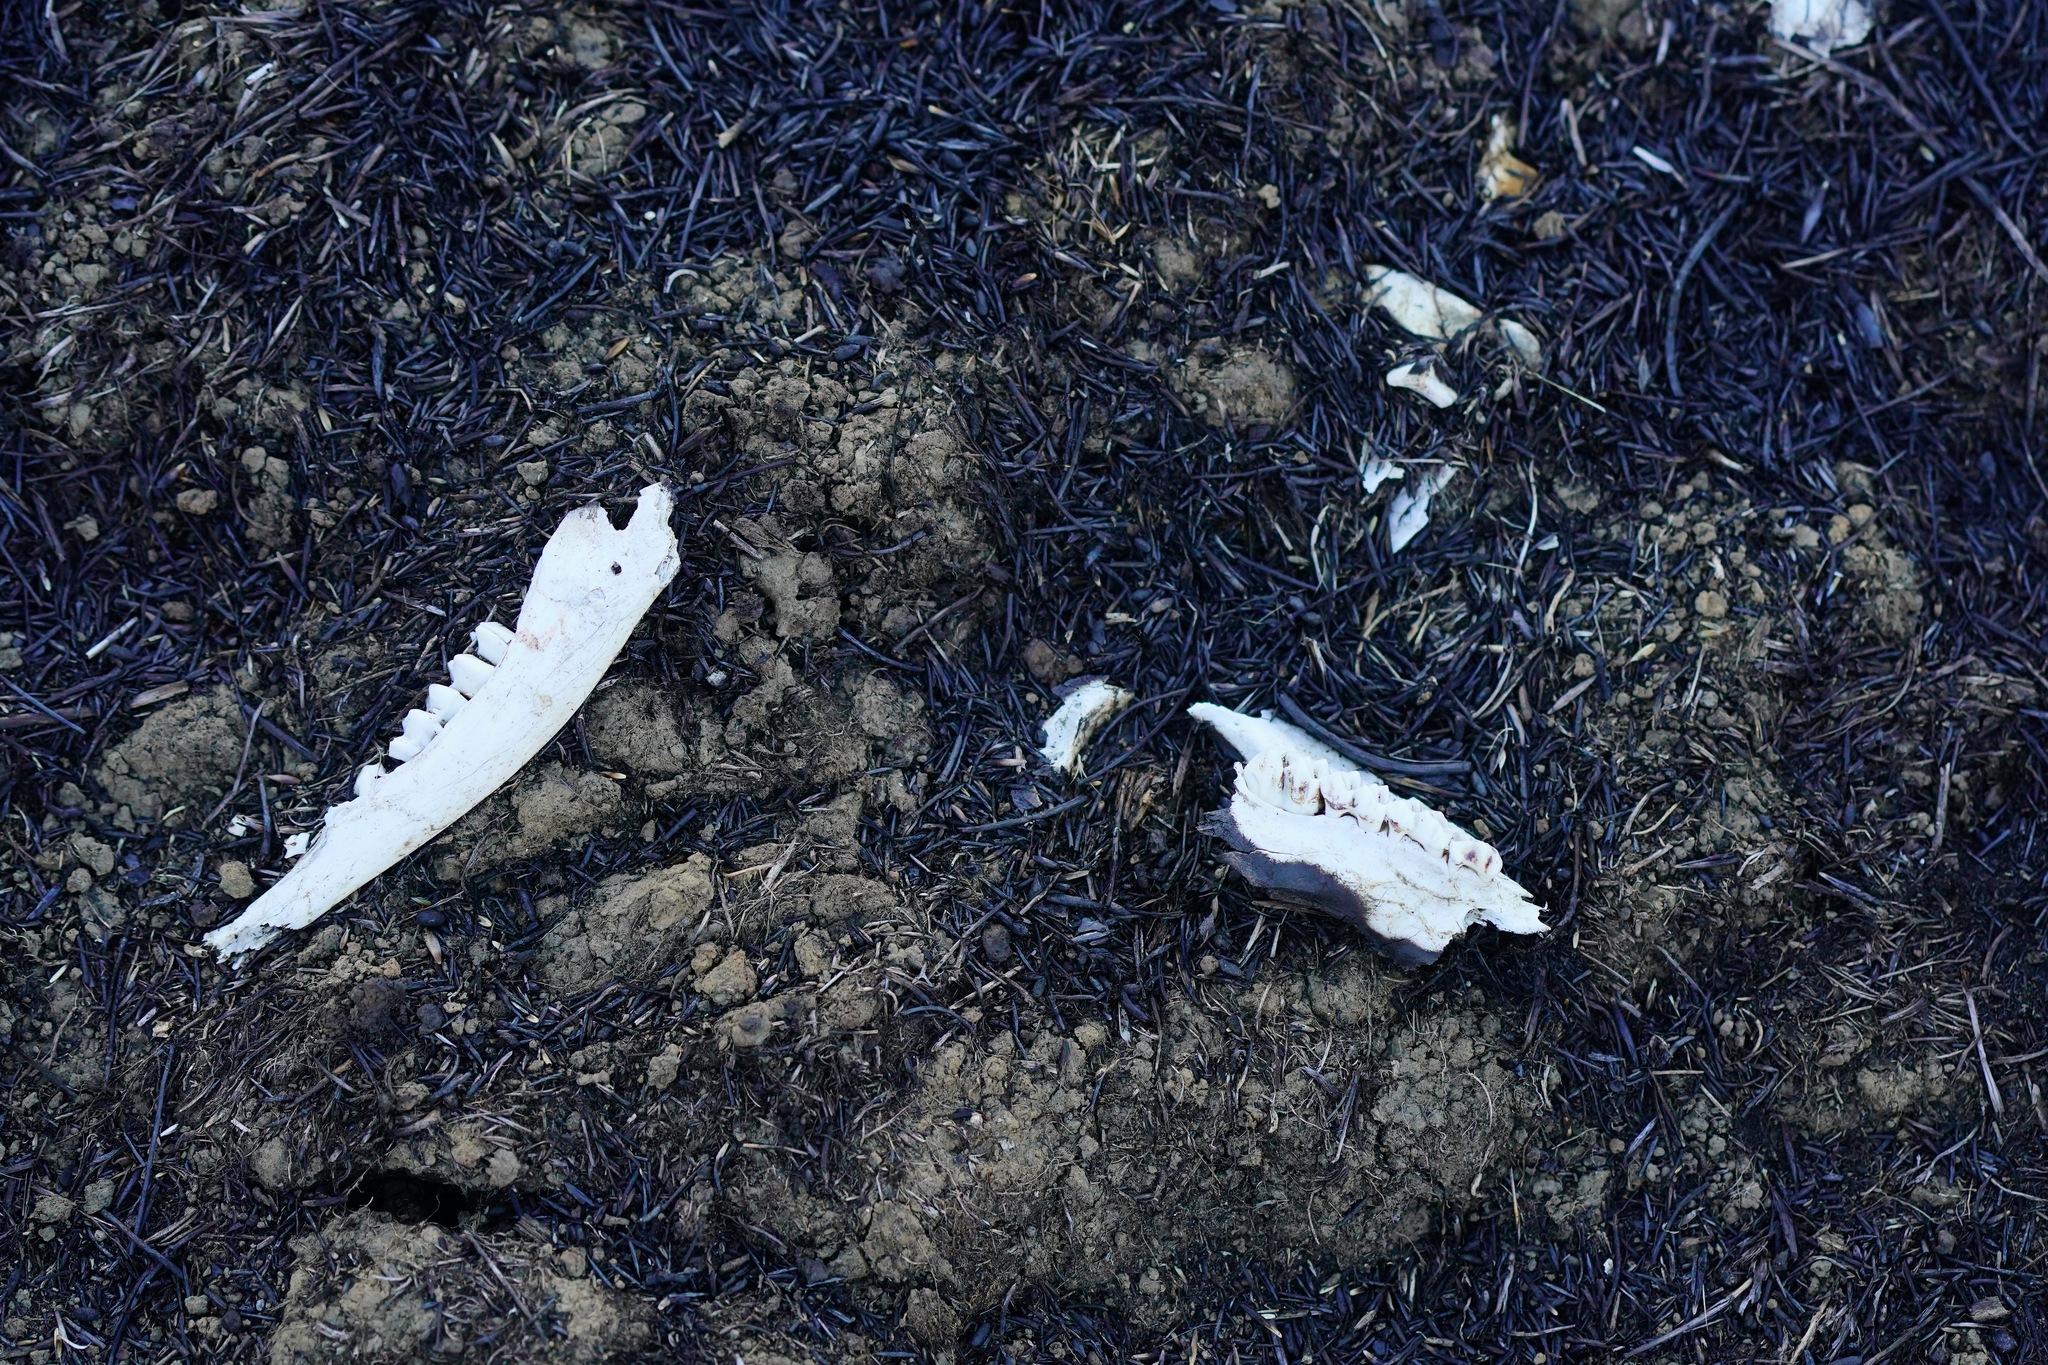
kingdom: Animalia
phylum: Chordata
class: Mammalia
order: Artiodactyla
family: Cervidae
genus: Odocoileus
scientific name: Odocoileus hemionus
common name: Mule deer
